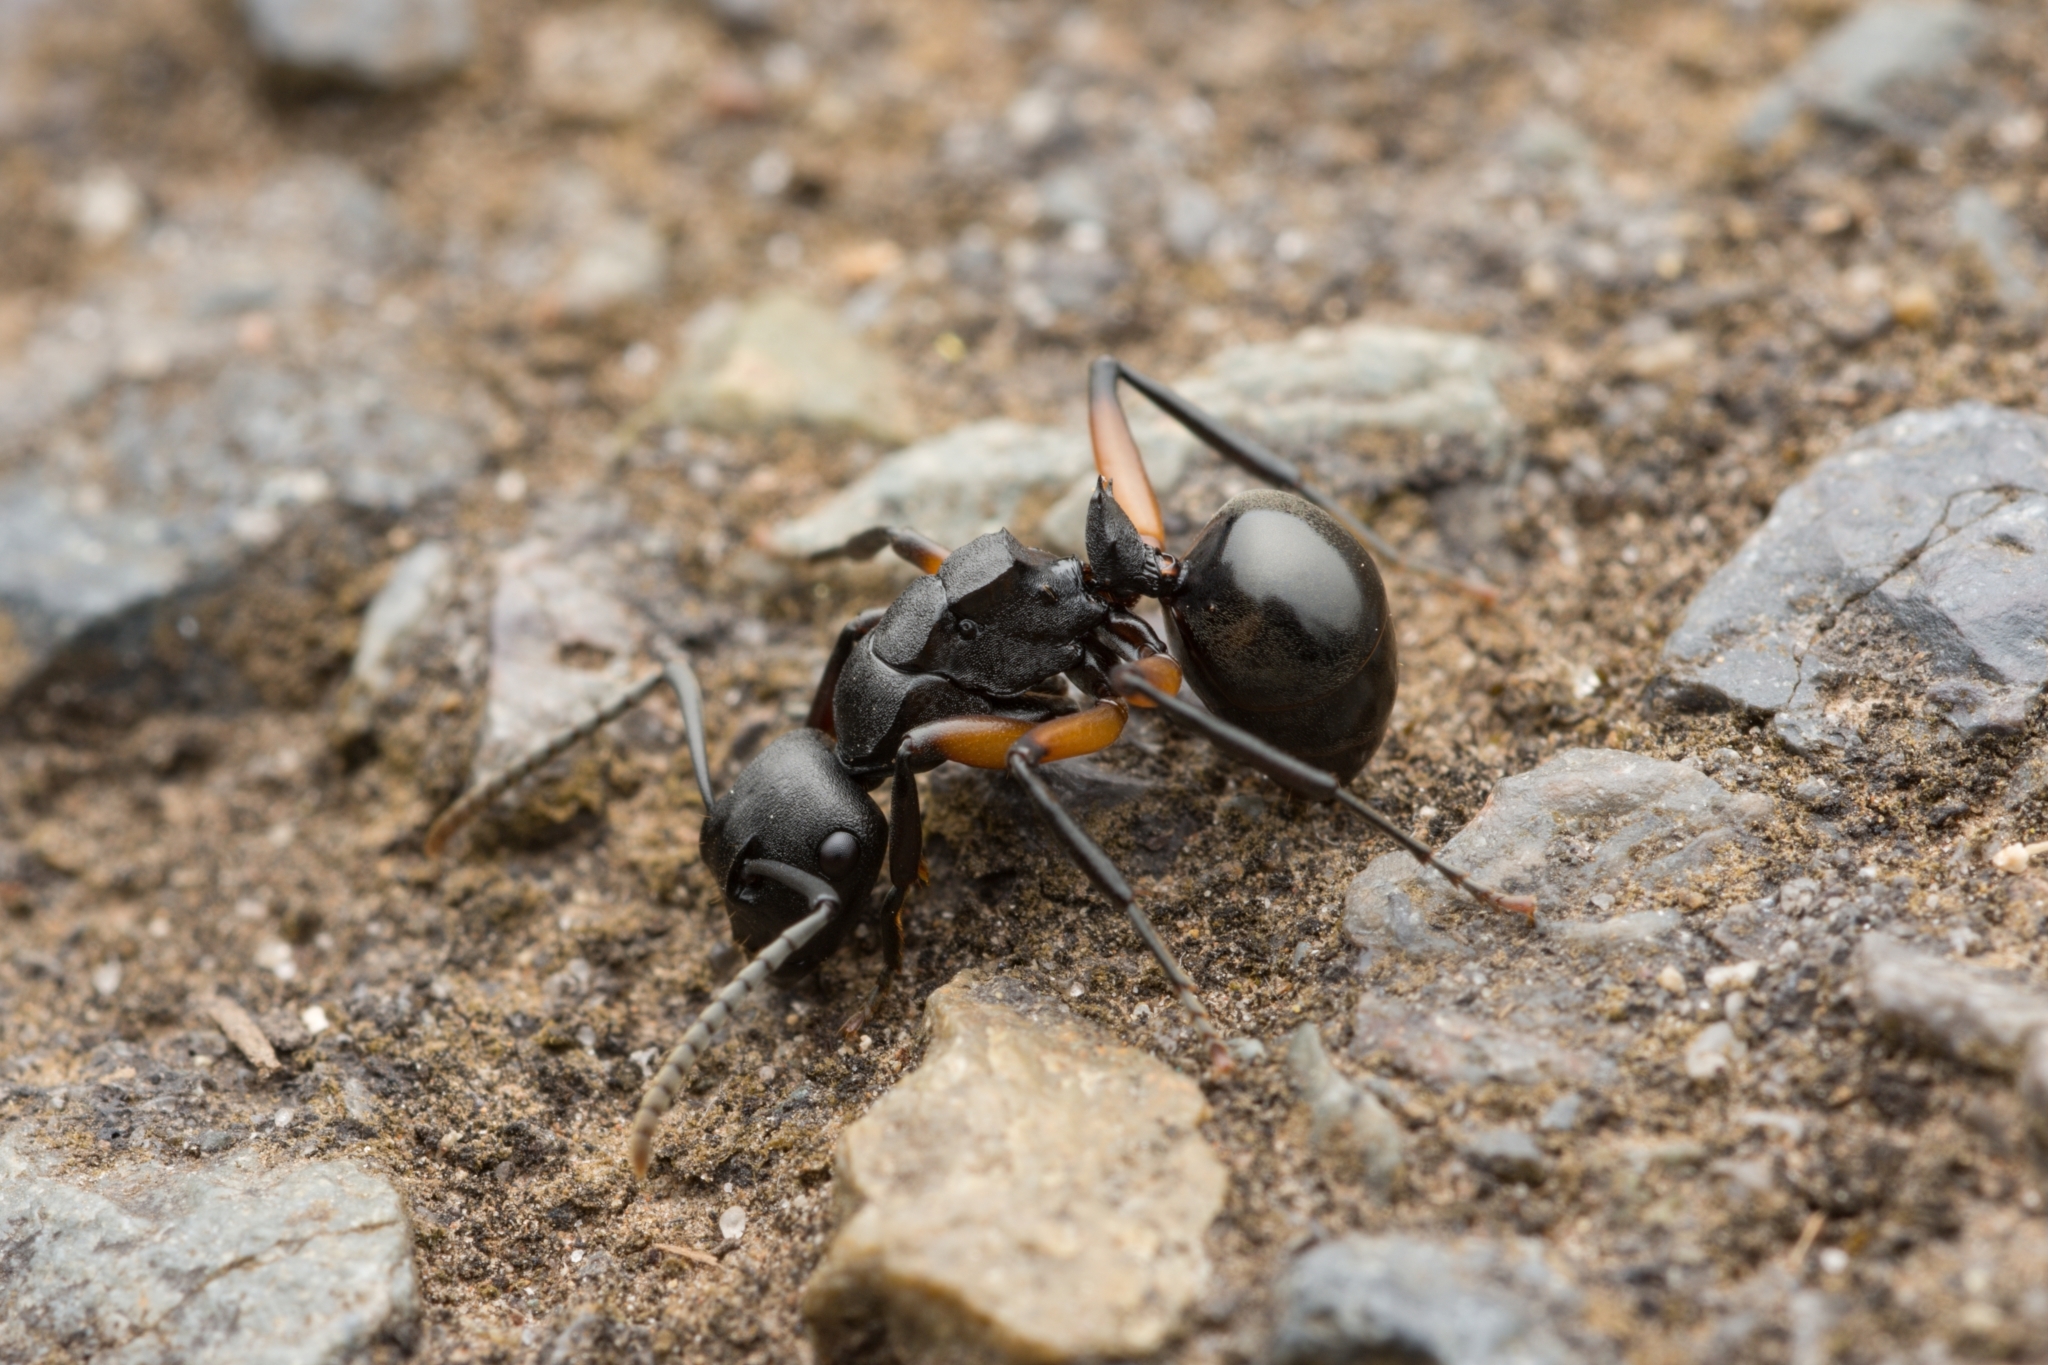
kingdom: Animalia
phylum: Arthropoda
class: Insecta
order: Hymenoptera
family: Formicidae
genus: Polyrhachis
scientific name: Polyrhachis femorata
